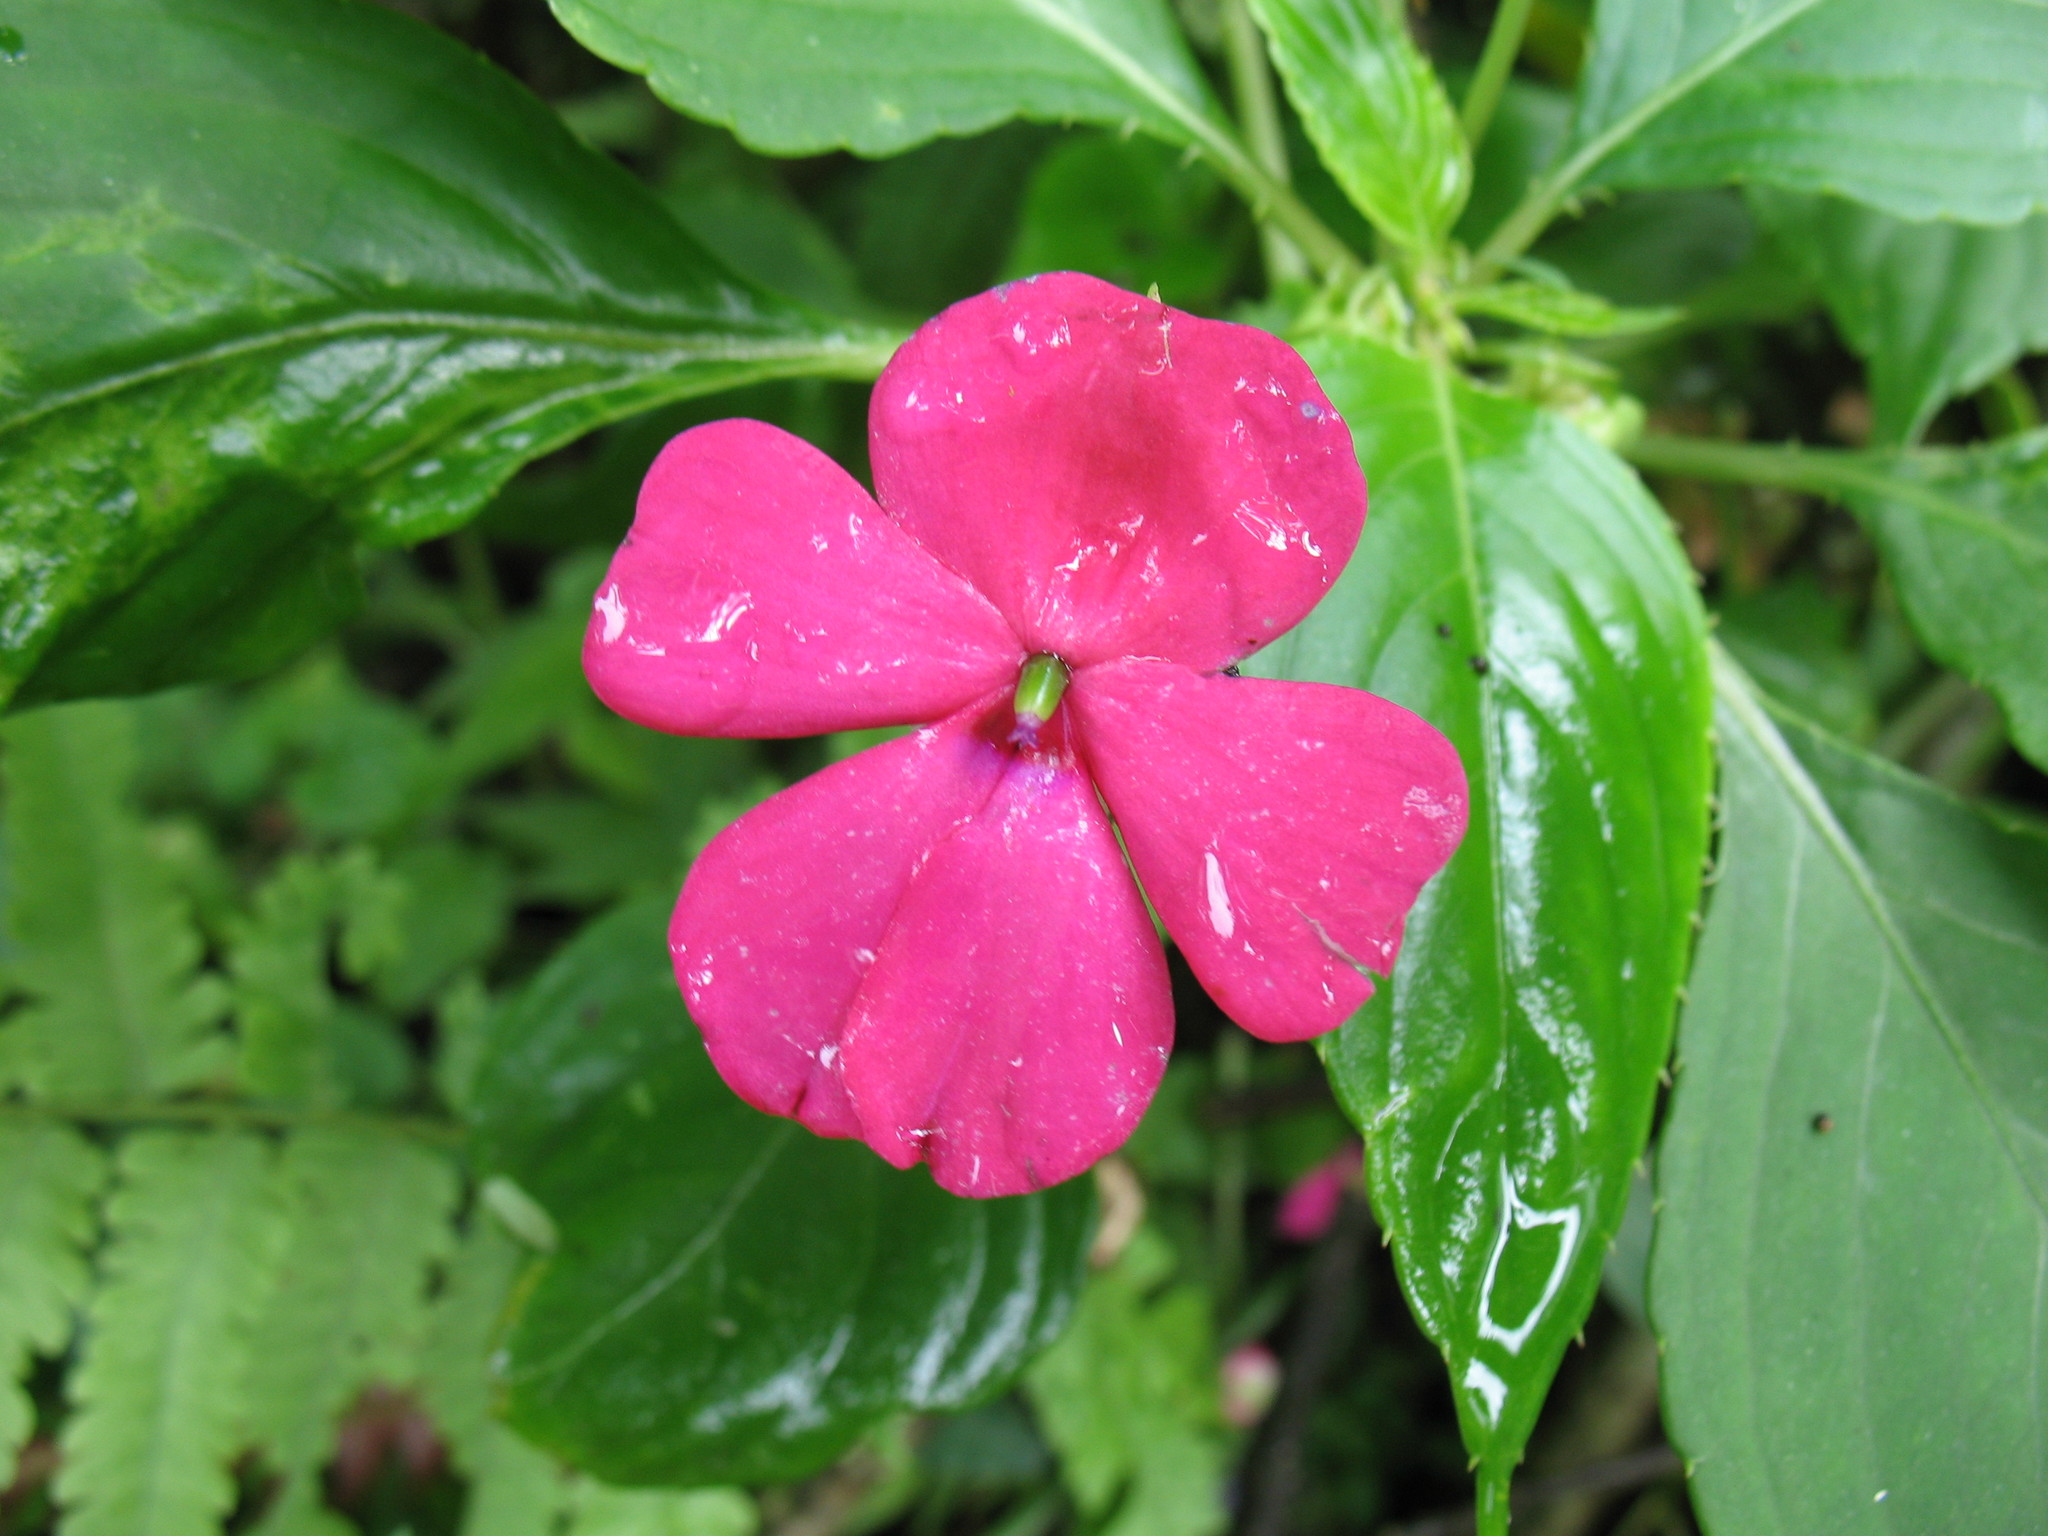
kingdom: Plantae
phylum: Tracheophyta
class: Magnoliopsida
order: Ericales
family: Balsaminaceae
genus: Impatiens
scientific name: Impatiens walleriana
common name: Buzzy lizzy
